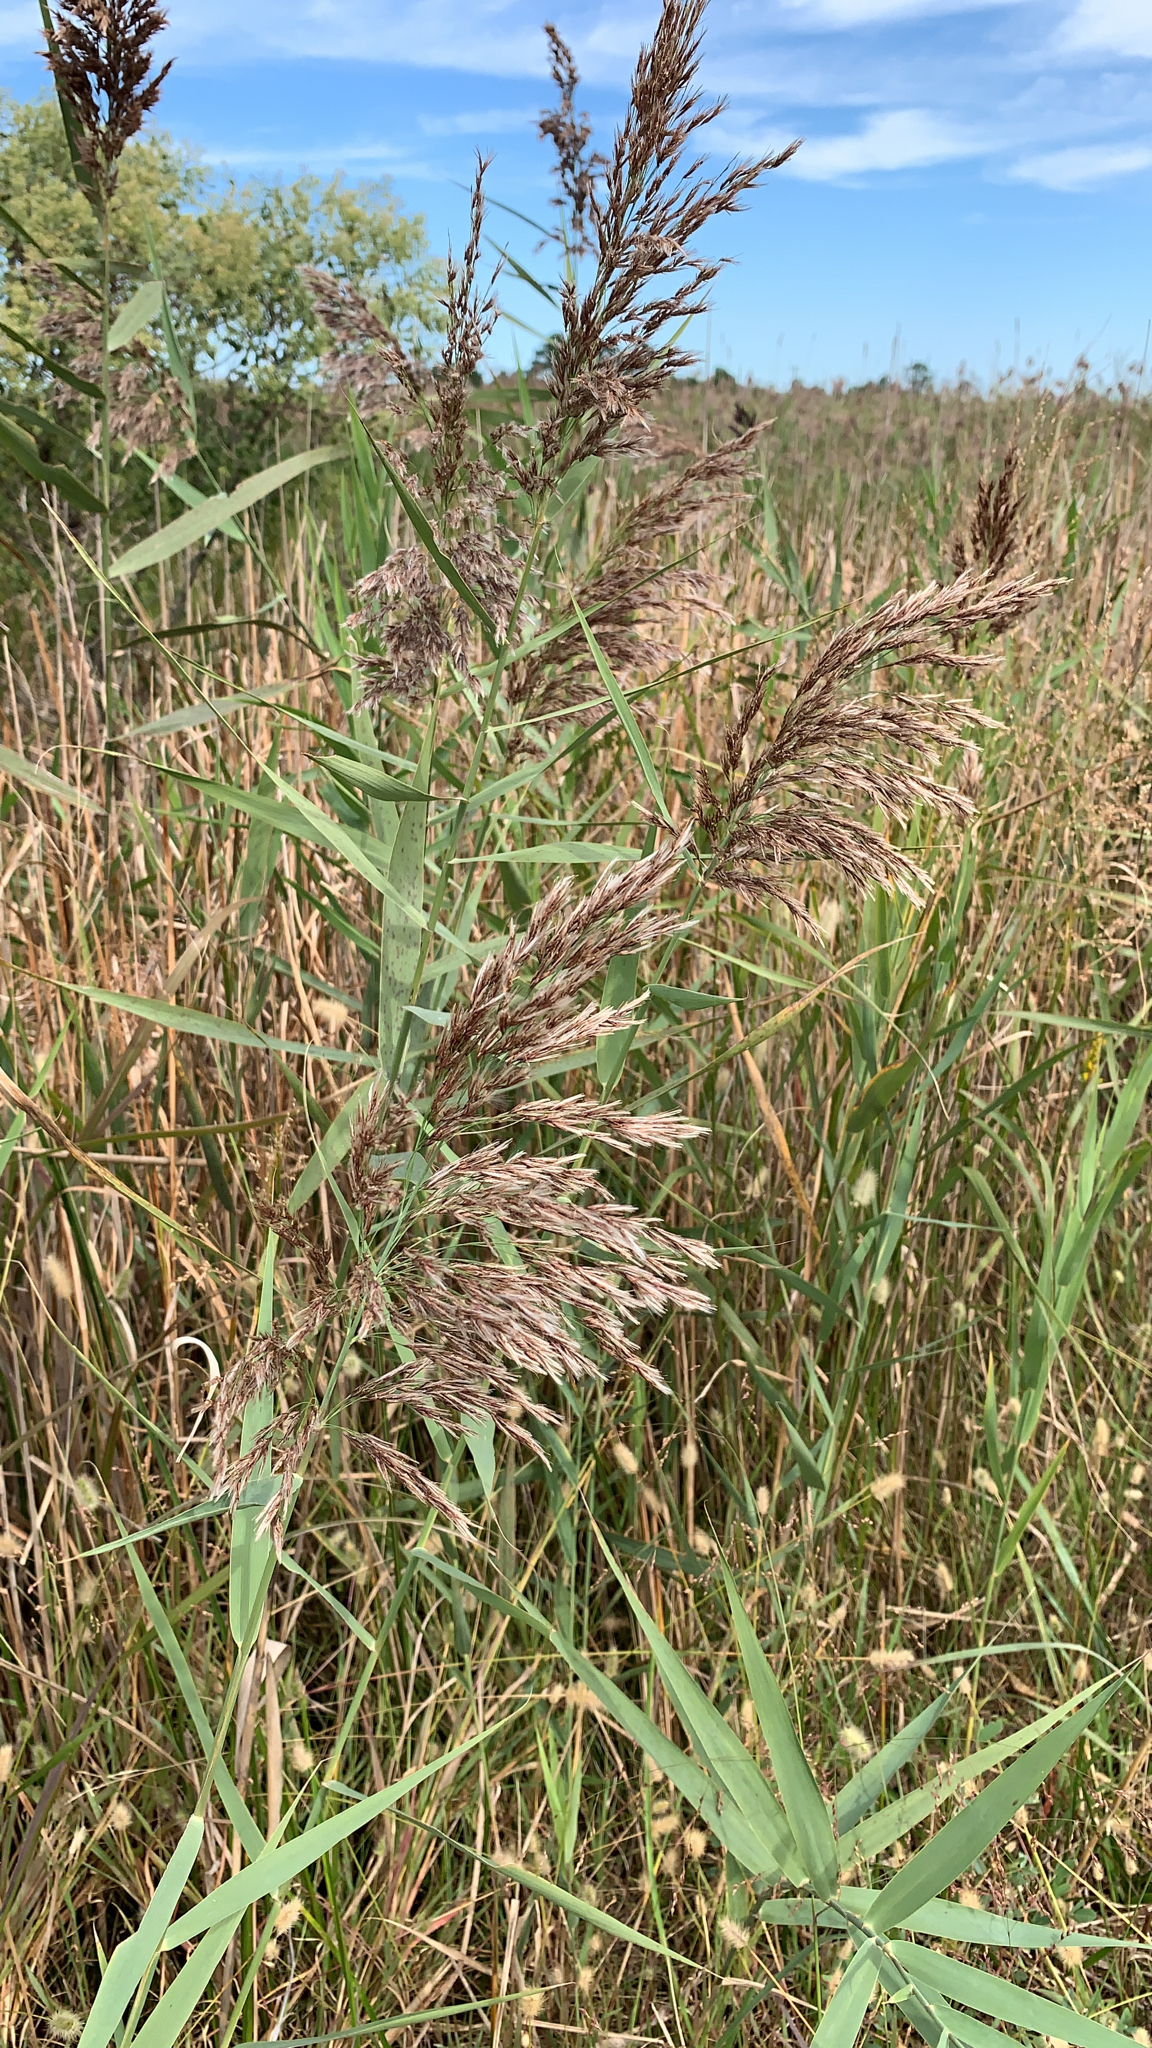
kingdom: Plantae
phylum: Tracheophyta
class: Liliopsida
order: Poales
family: Poaceae
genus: Phragmites
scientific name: Phragmites australis
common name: Common reed
